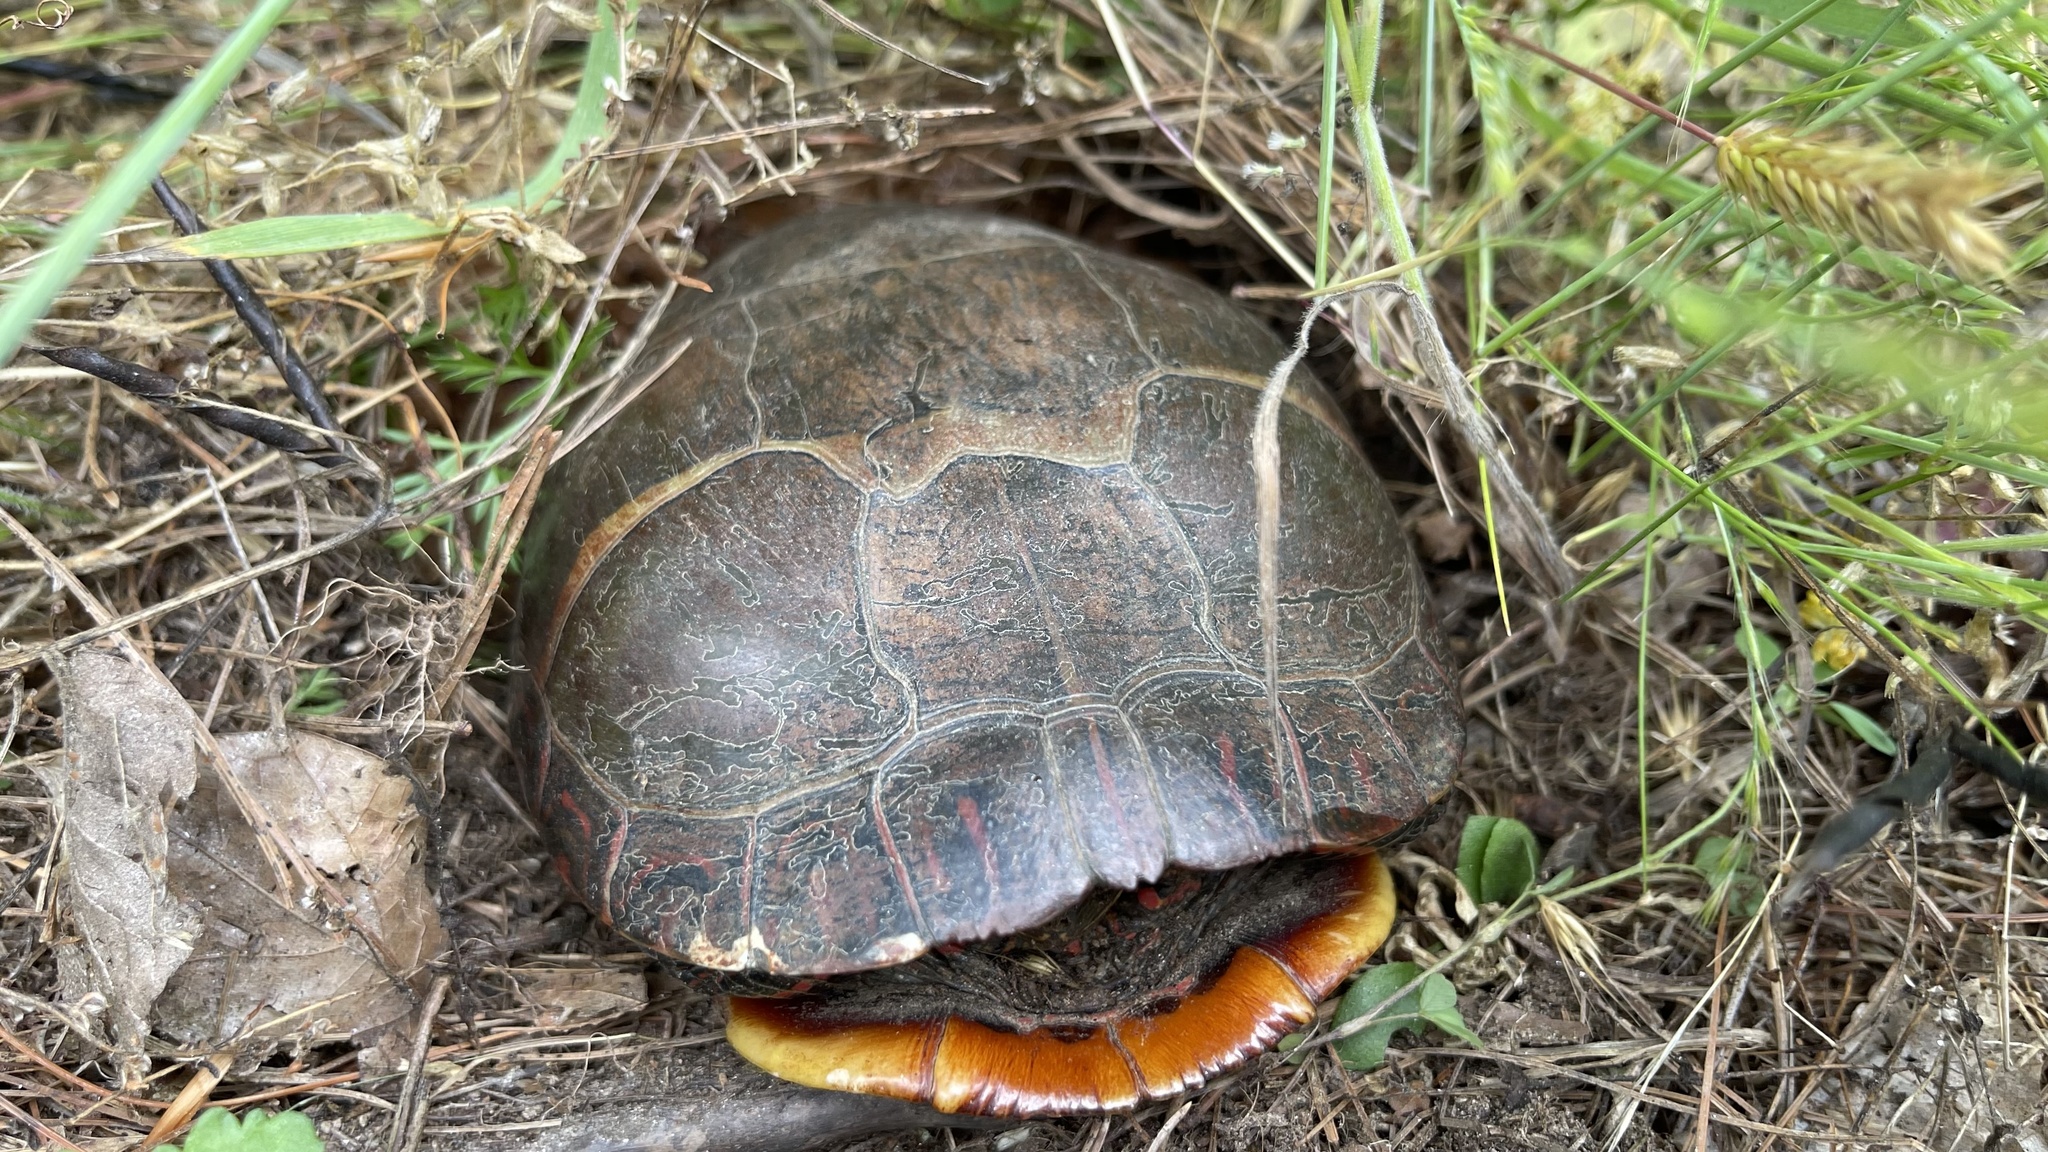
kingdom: Animalia
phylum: Chordata
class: Testudines
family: Emydidae
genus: Chrysemys
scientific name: Chrysemys picta
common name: Painted turtle
